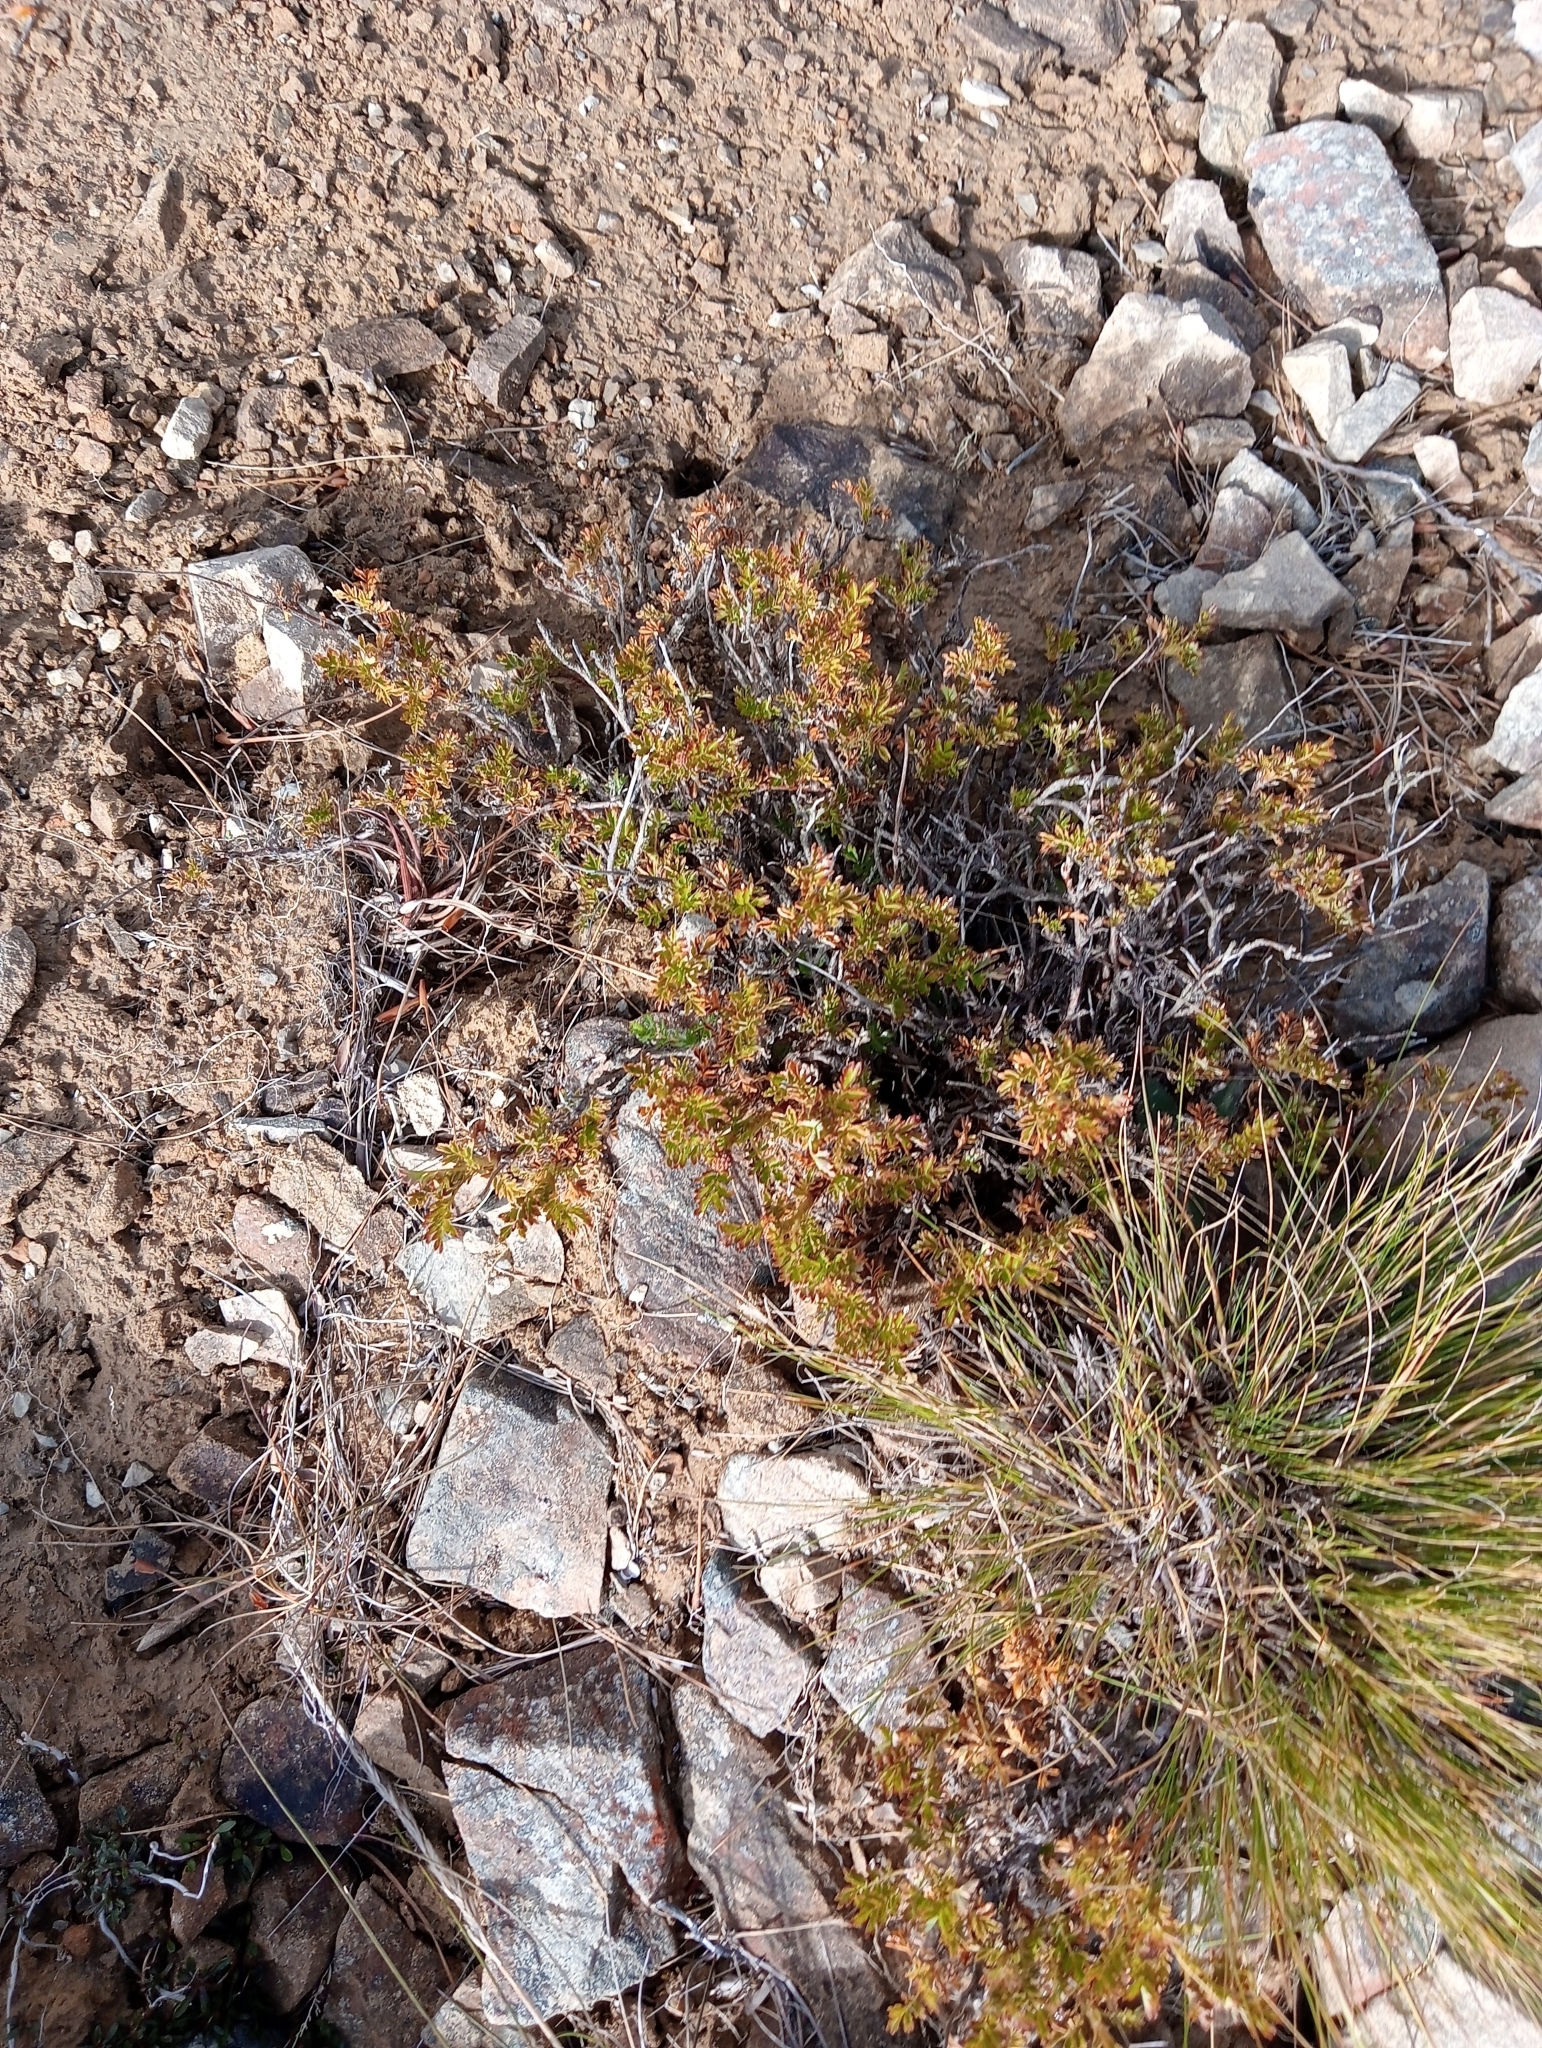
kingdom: Plantae
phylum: Tracheophyta
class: Magnoliopsida
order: Rosales
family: Rosaceae
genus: Acaena
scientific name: Acaena glabra
